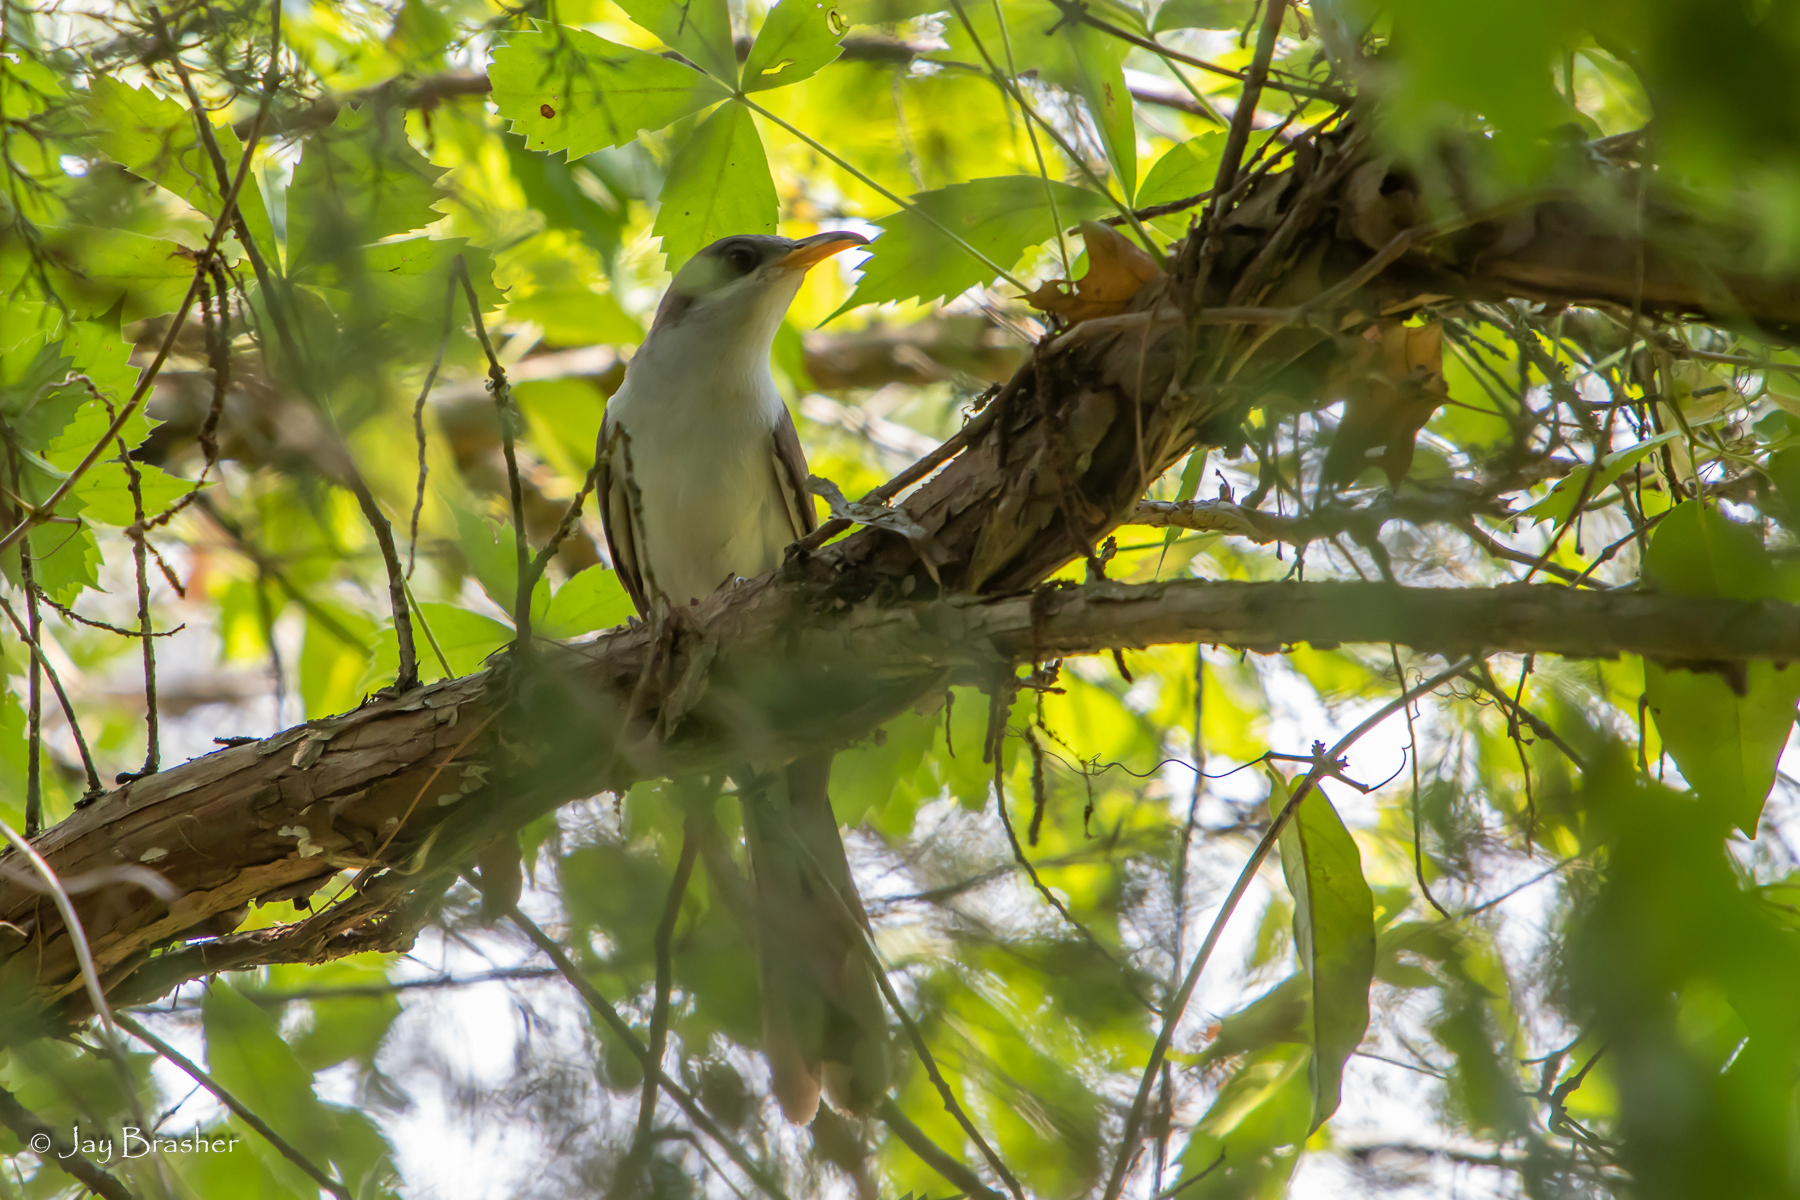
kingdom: Animalia
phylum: Chordata
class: Aves
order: Cuculiformes
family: Cuculidae
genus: Coccyzus
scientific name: Coccyzus americanus
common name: Yellow-billed cuckoo
